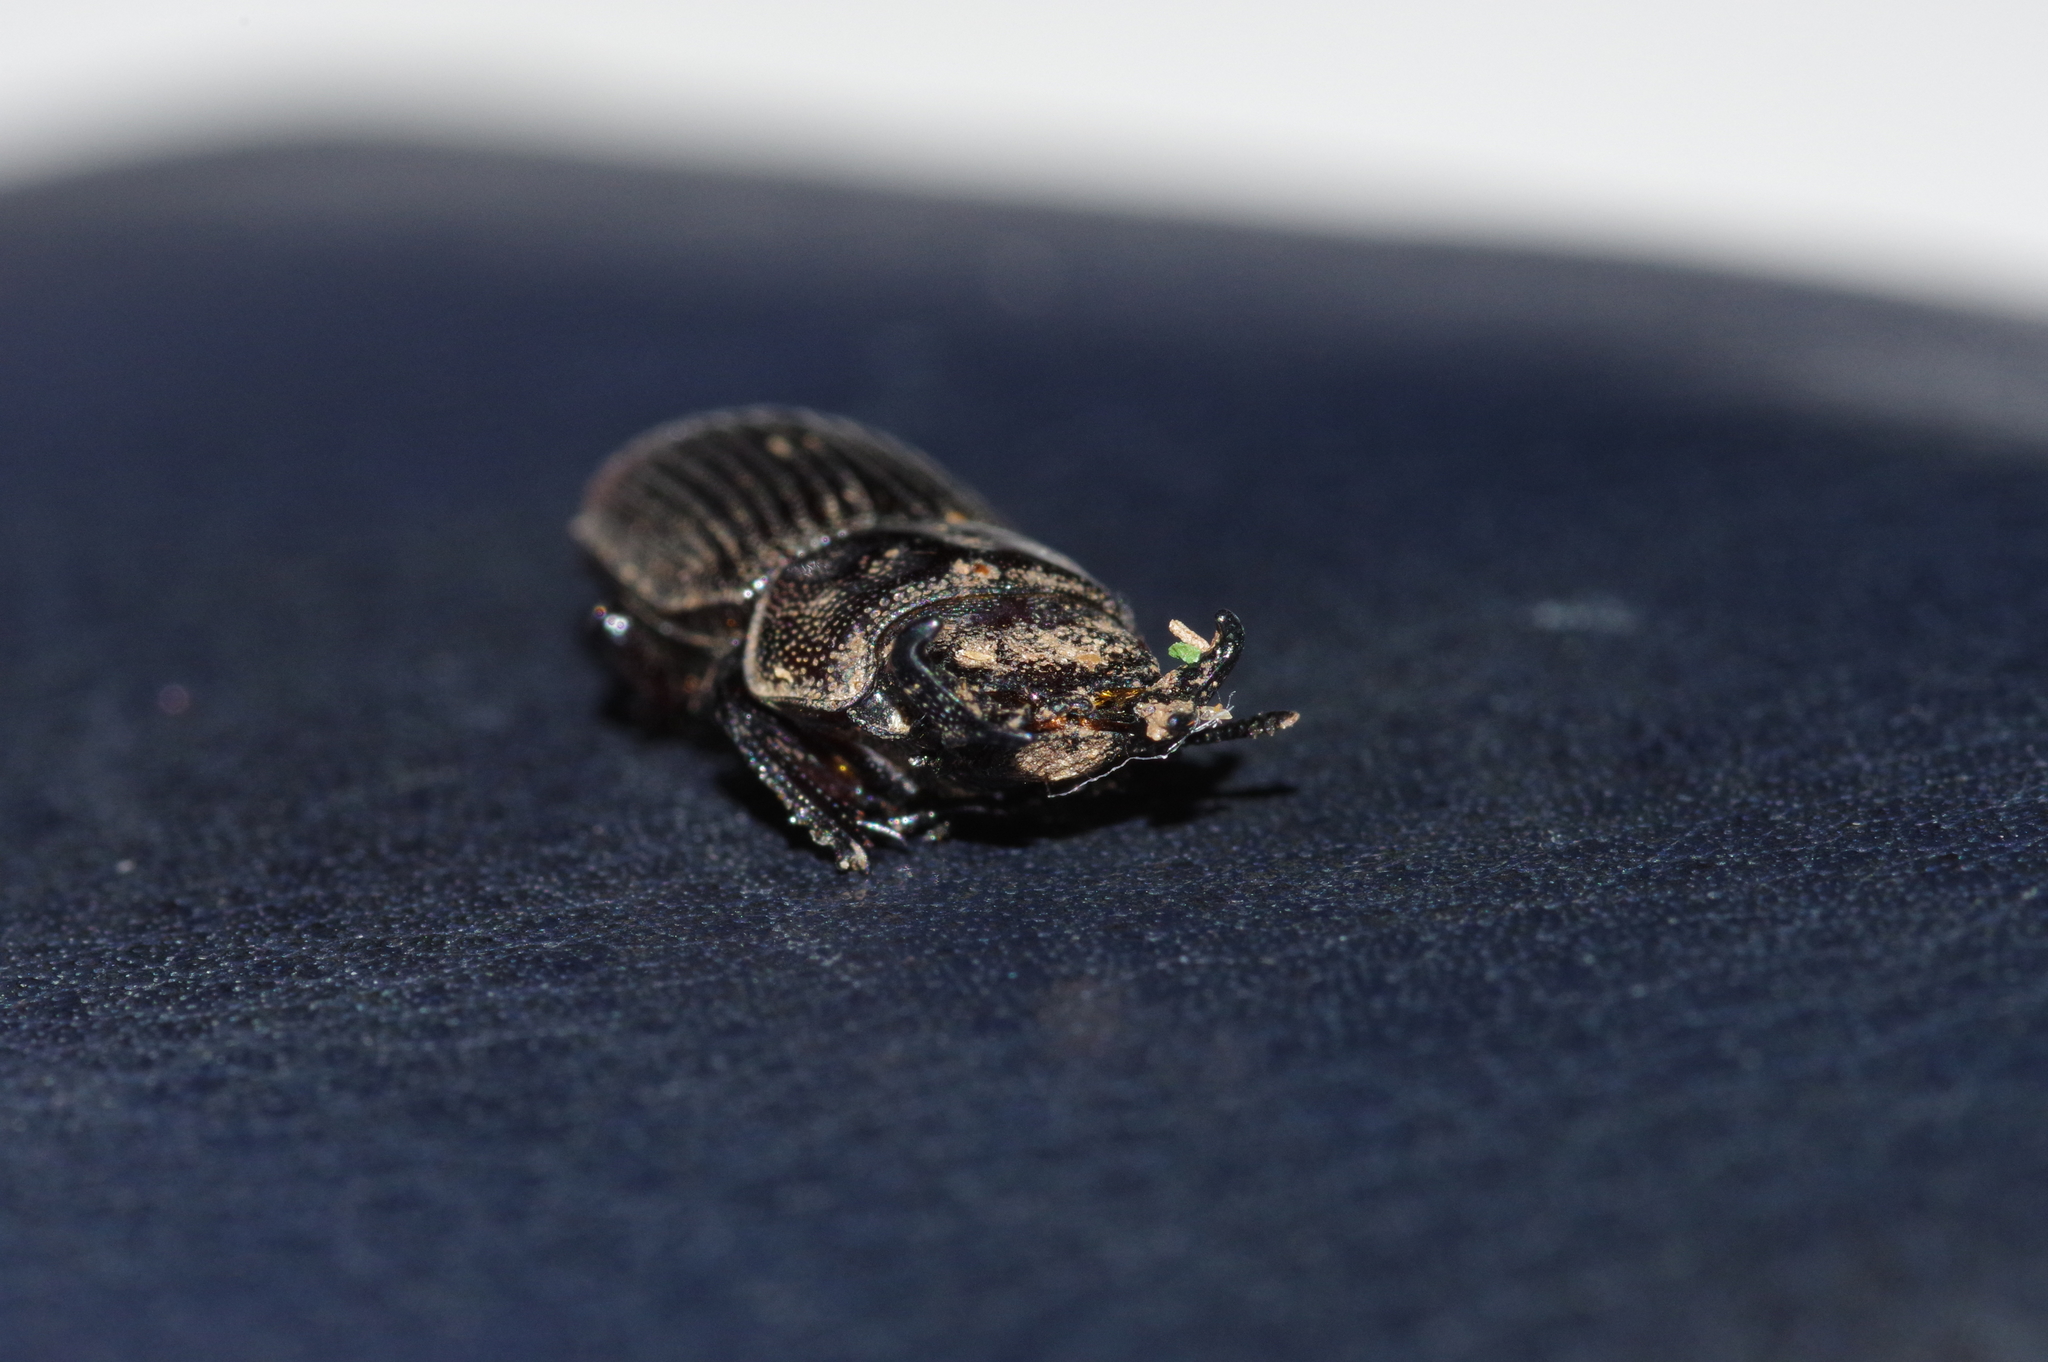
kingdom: Animalia
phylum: Arthropoda
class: Insecta
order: Coleoptera
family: Lucanidae
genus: Nigidius
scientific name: Nigidius lewisi
